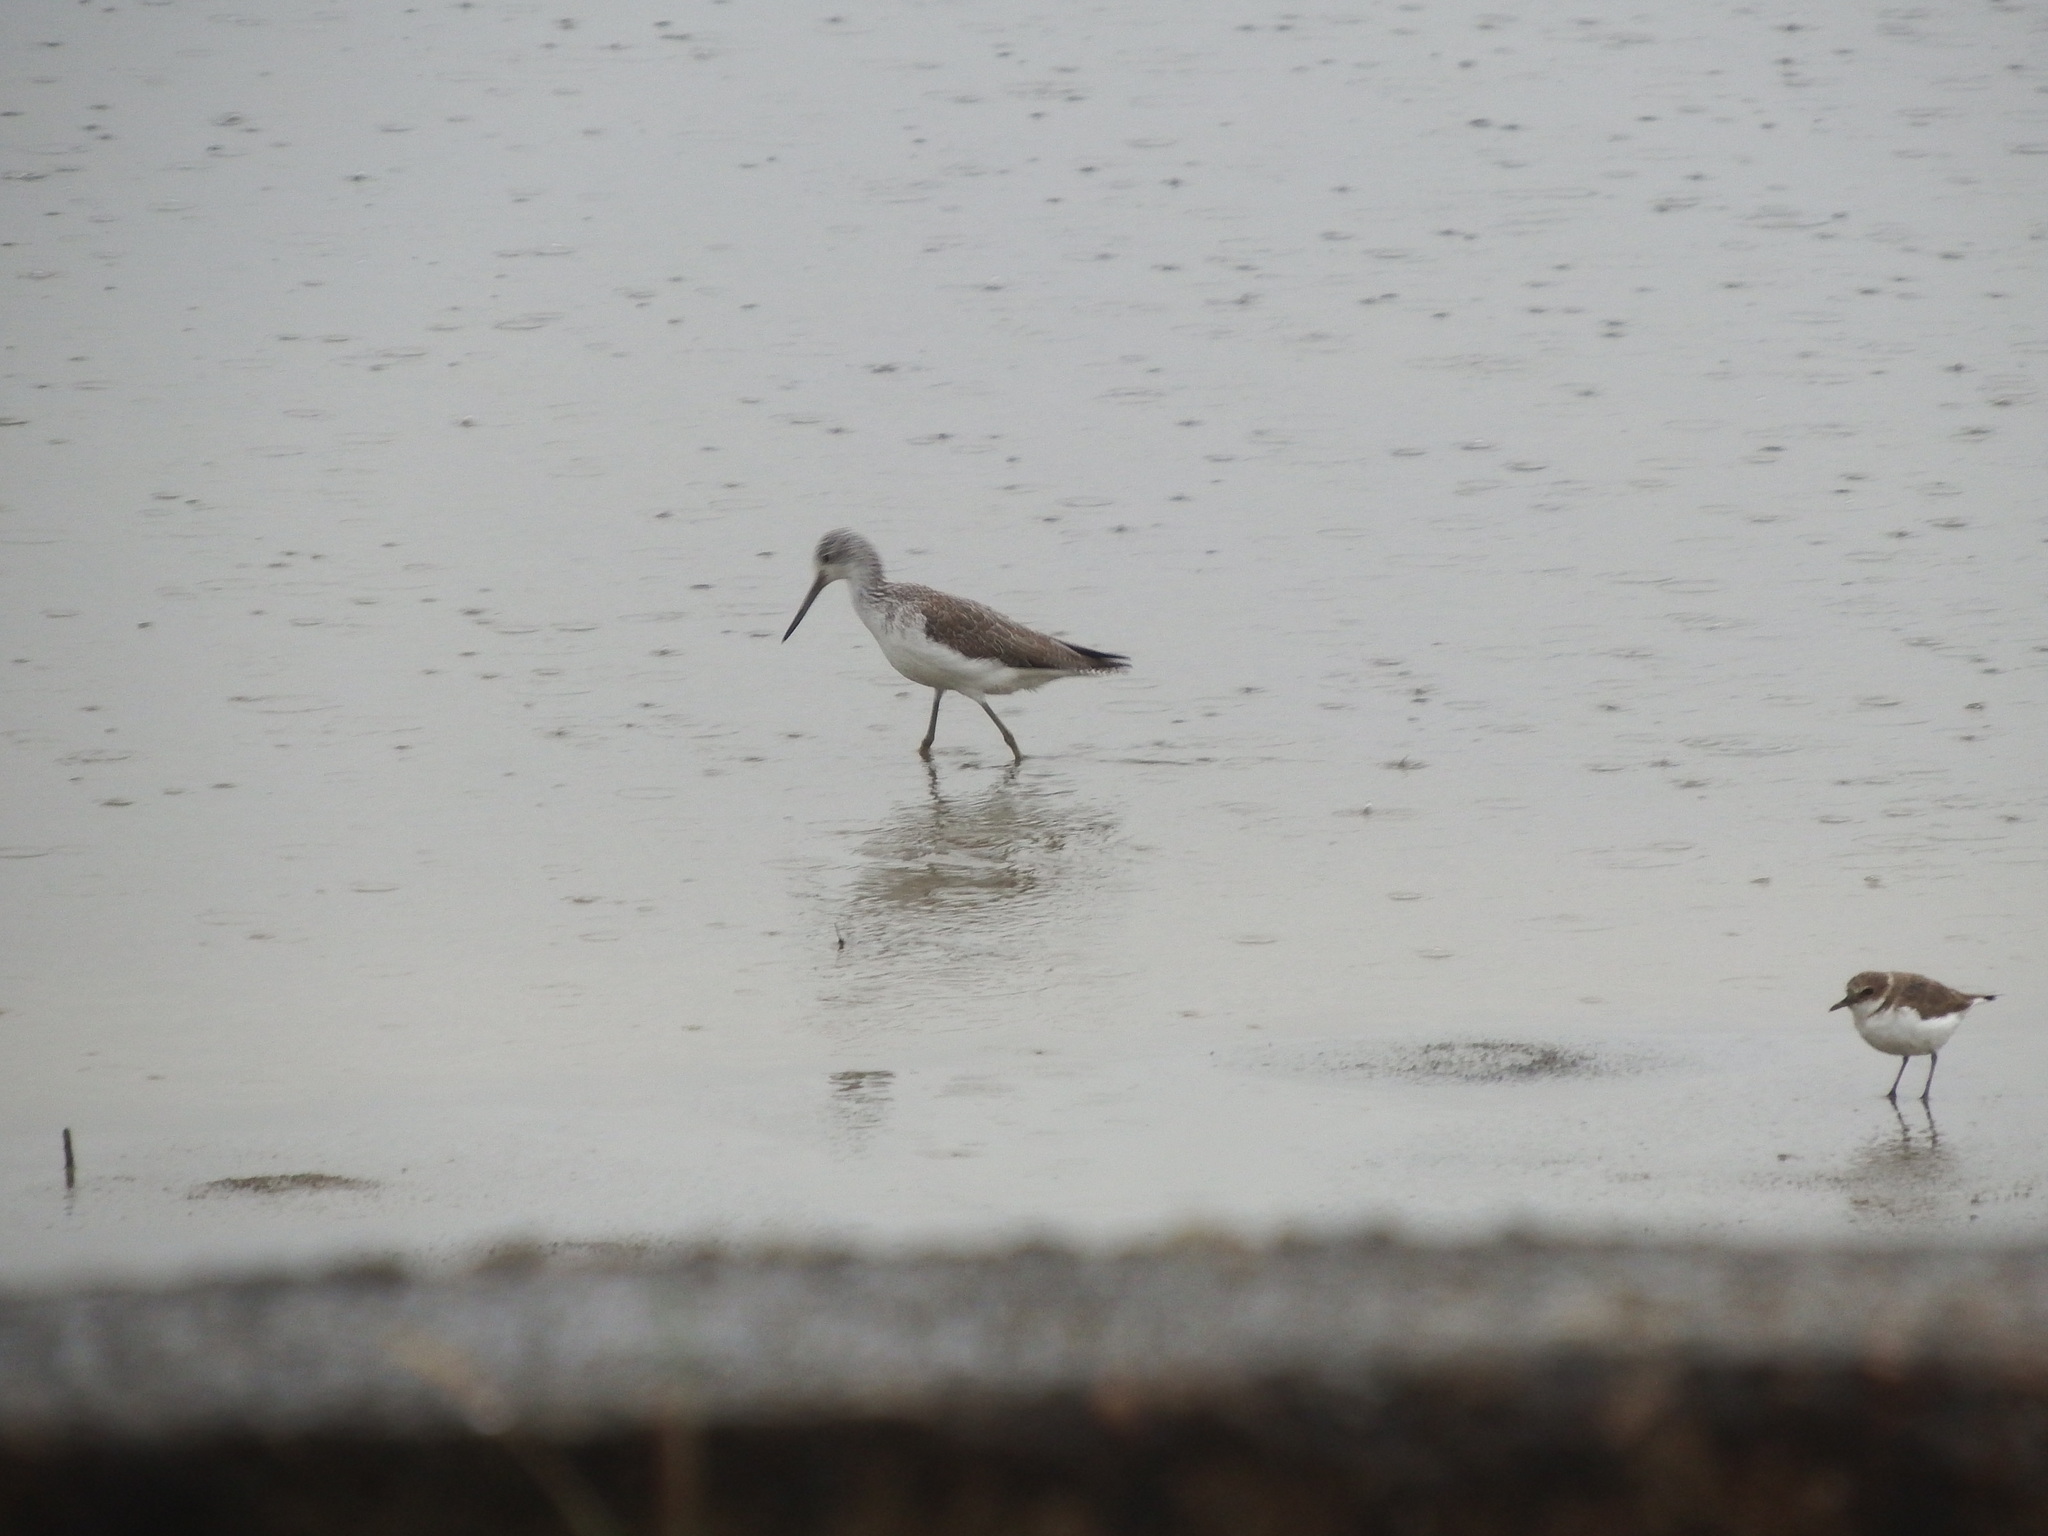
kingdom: Animalia
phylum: Chordata
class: Aves
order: Charadriiformes
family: Scolopacidae
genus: Tringa
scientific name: Tringa nebularia
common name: Common greenshank
